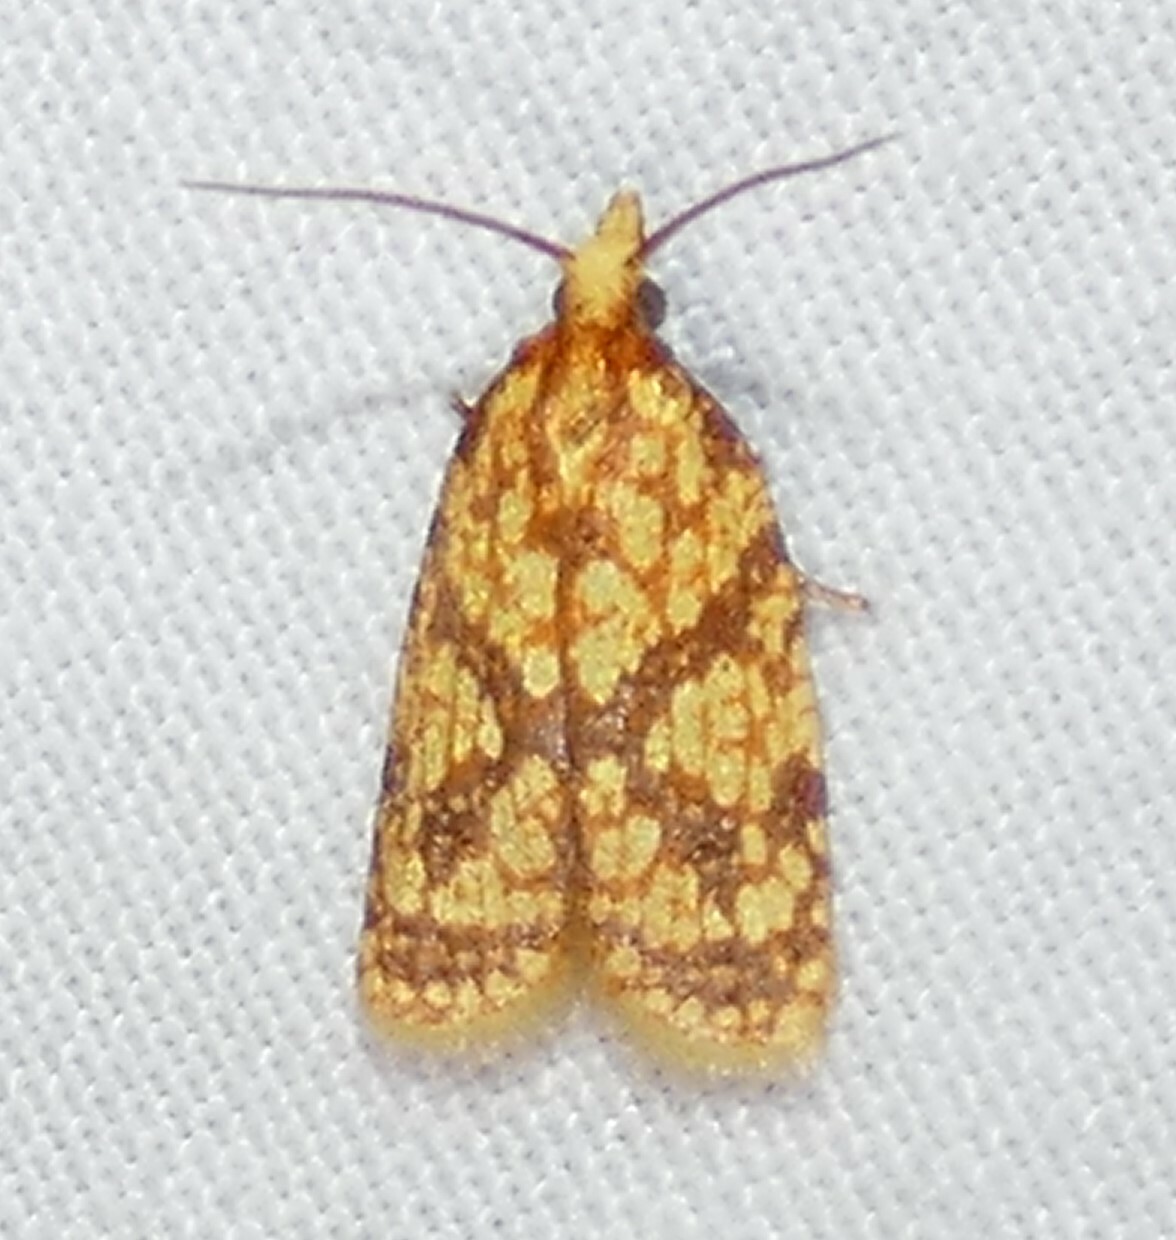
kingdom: Animalia
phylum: Arthropoda
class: Insecta
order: Lepidoptera
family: Tortricidae
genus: Sparganothis
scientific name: Sparganothis sulfureana
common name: Sparganothis fruitworm moth
